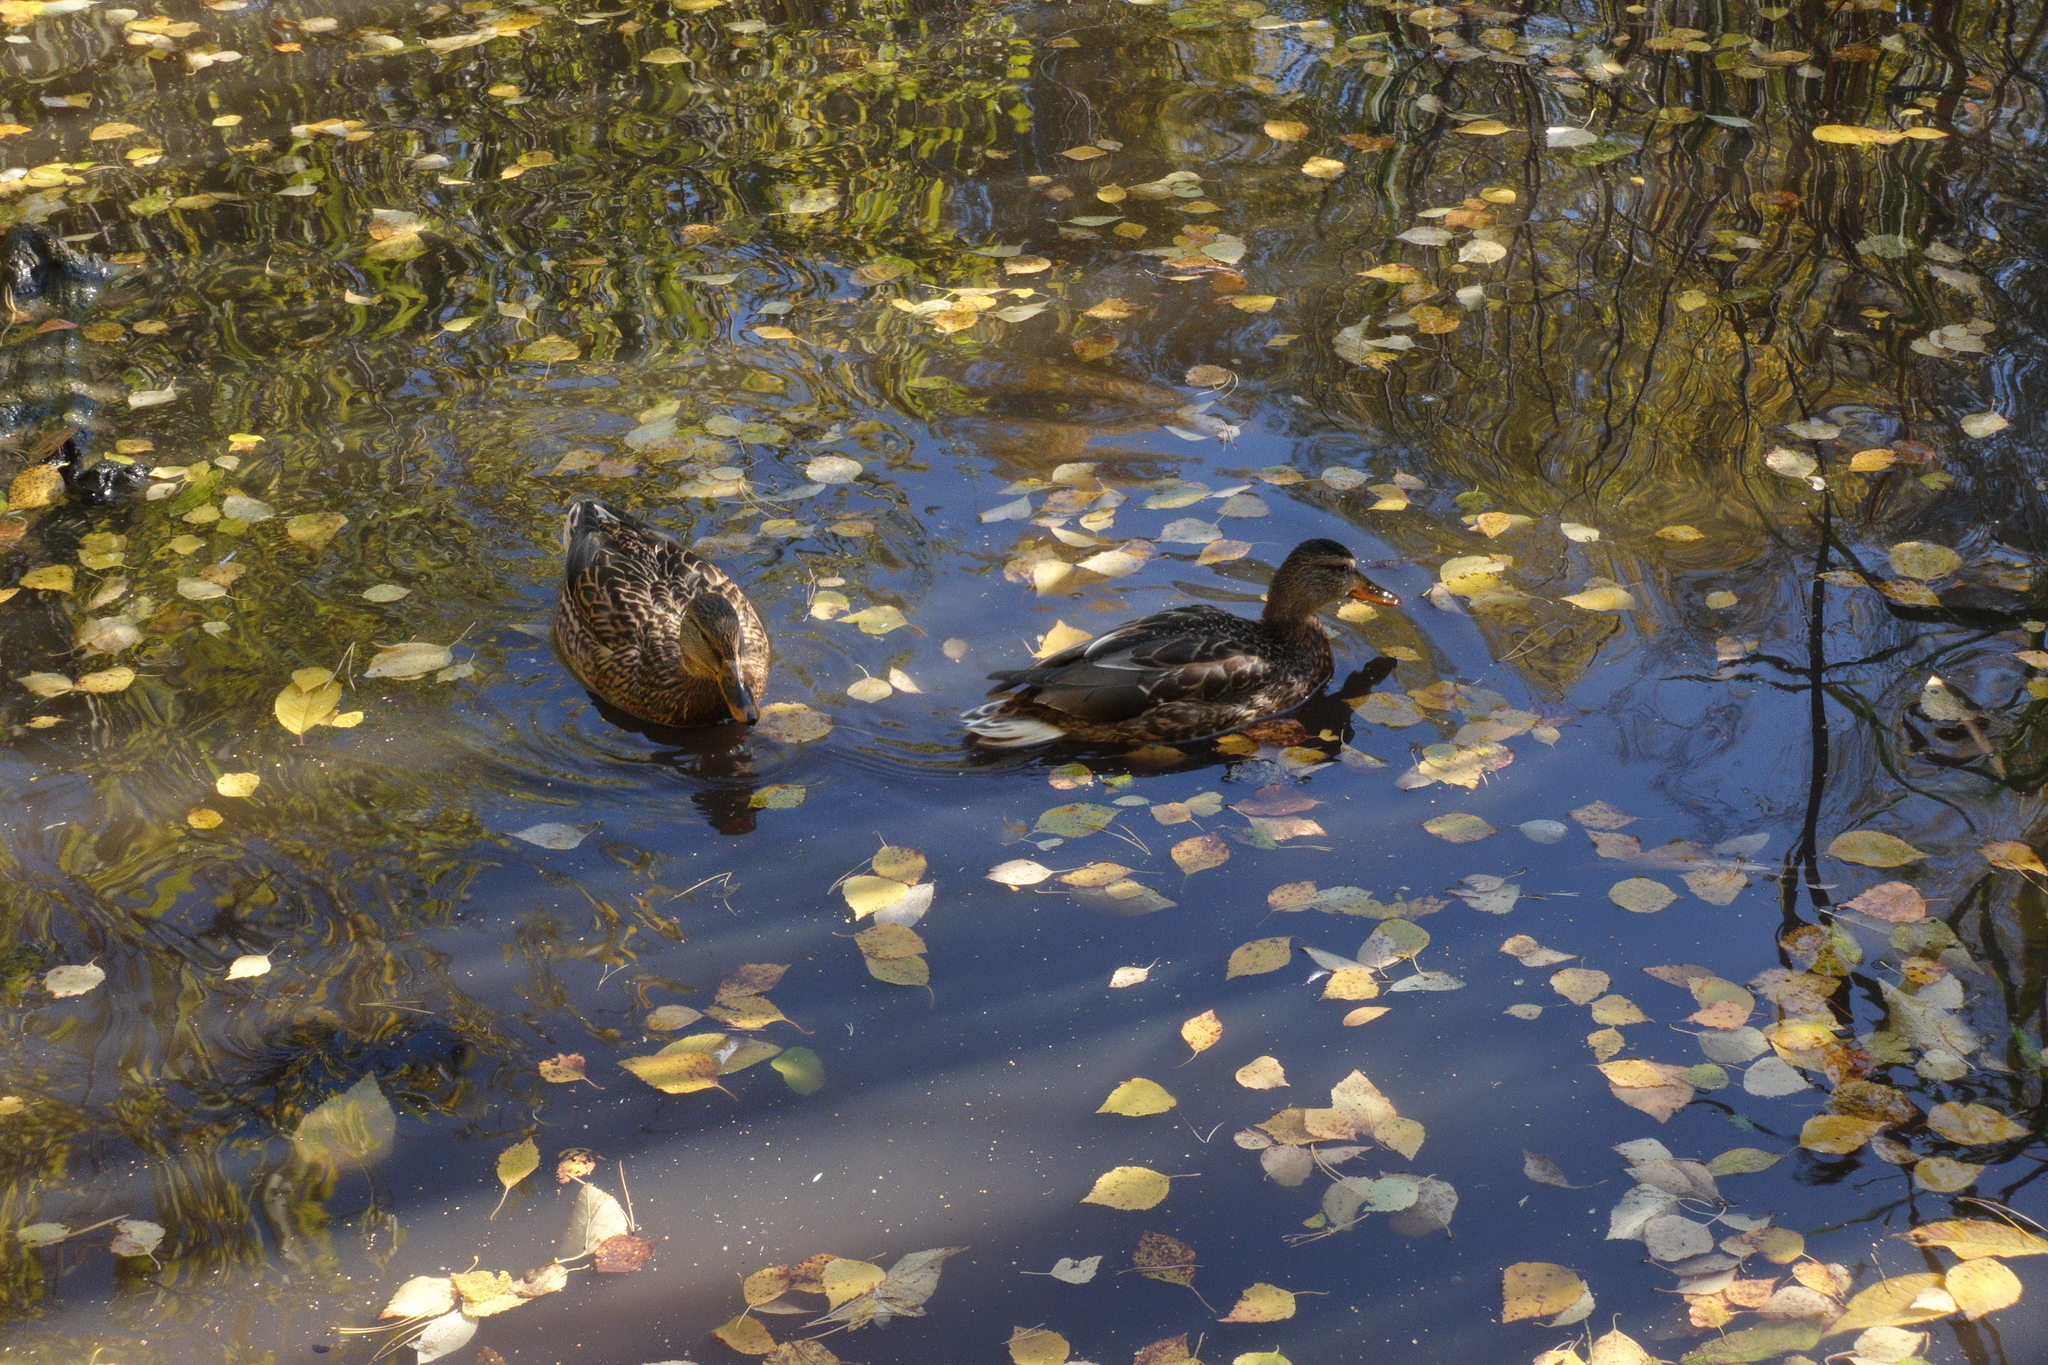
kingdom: Animalia
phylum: Chordata
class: Aves
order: Anseriformes
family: Anatidae
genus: Anas
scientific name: Anas platyrhynchos
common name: Mallard
